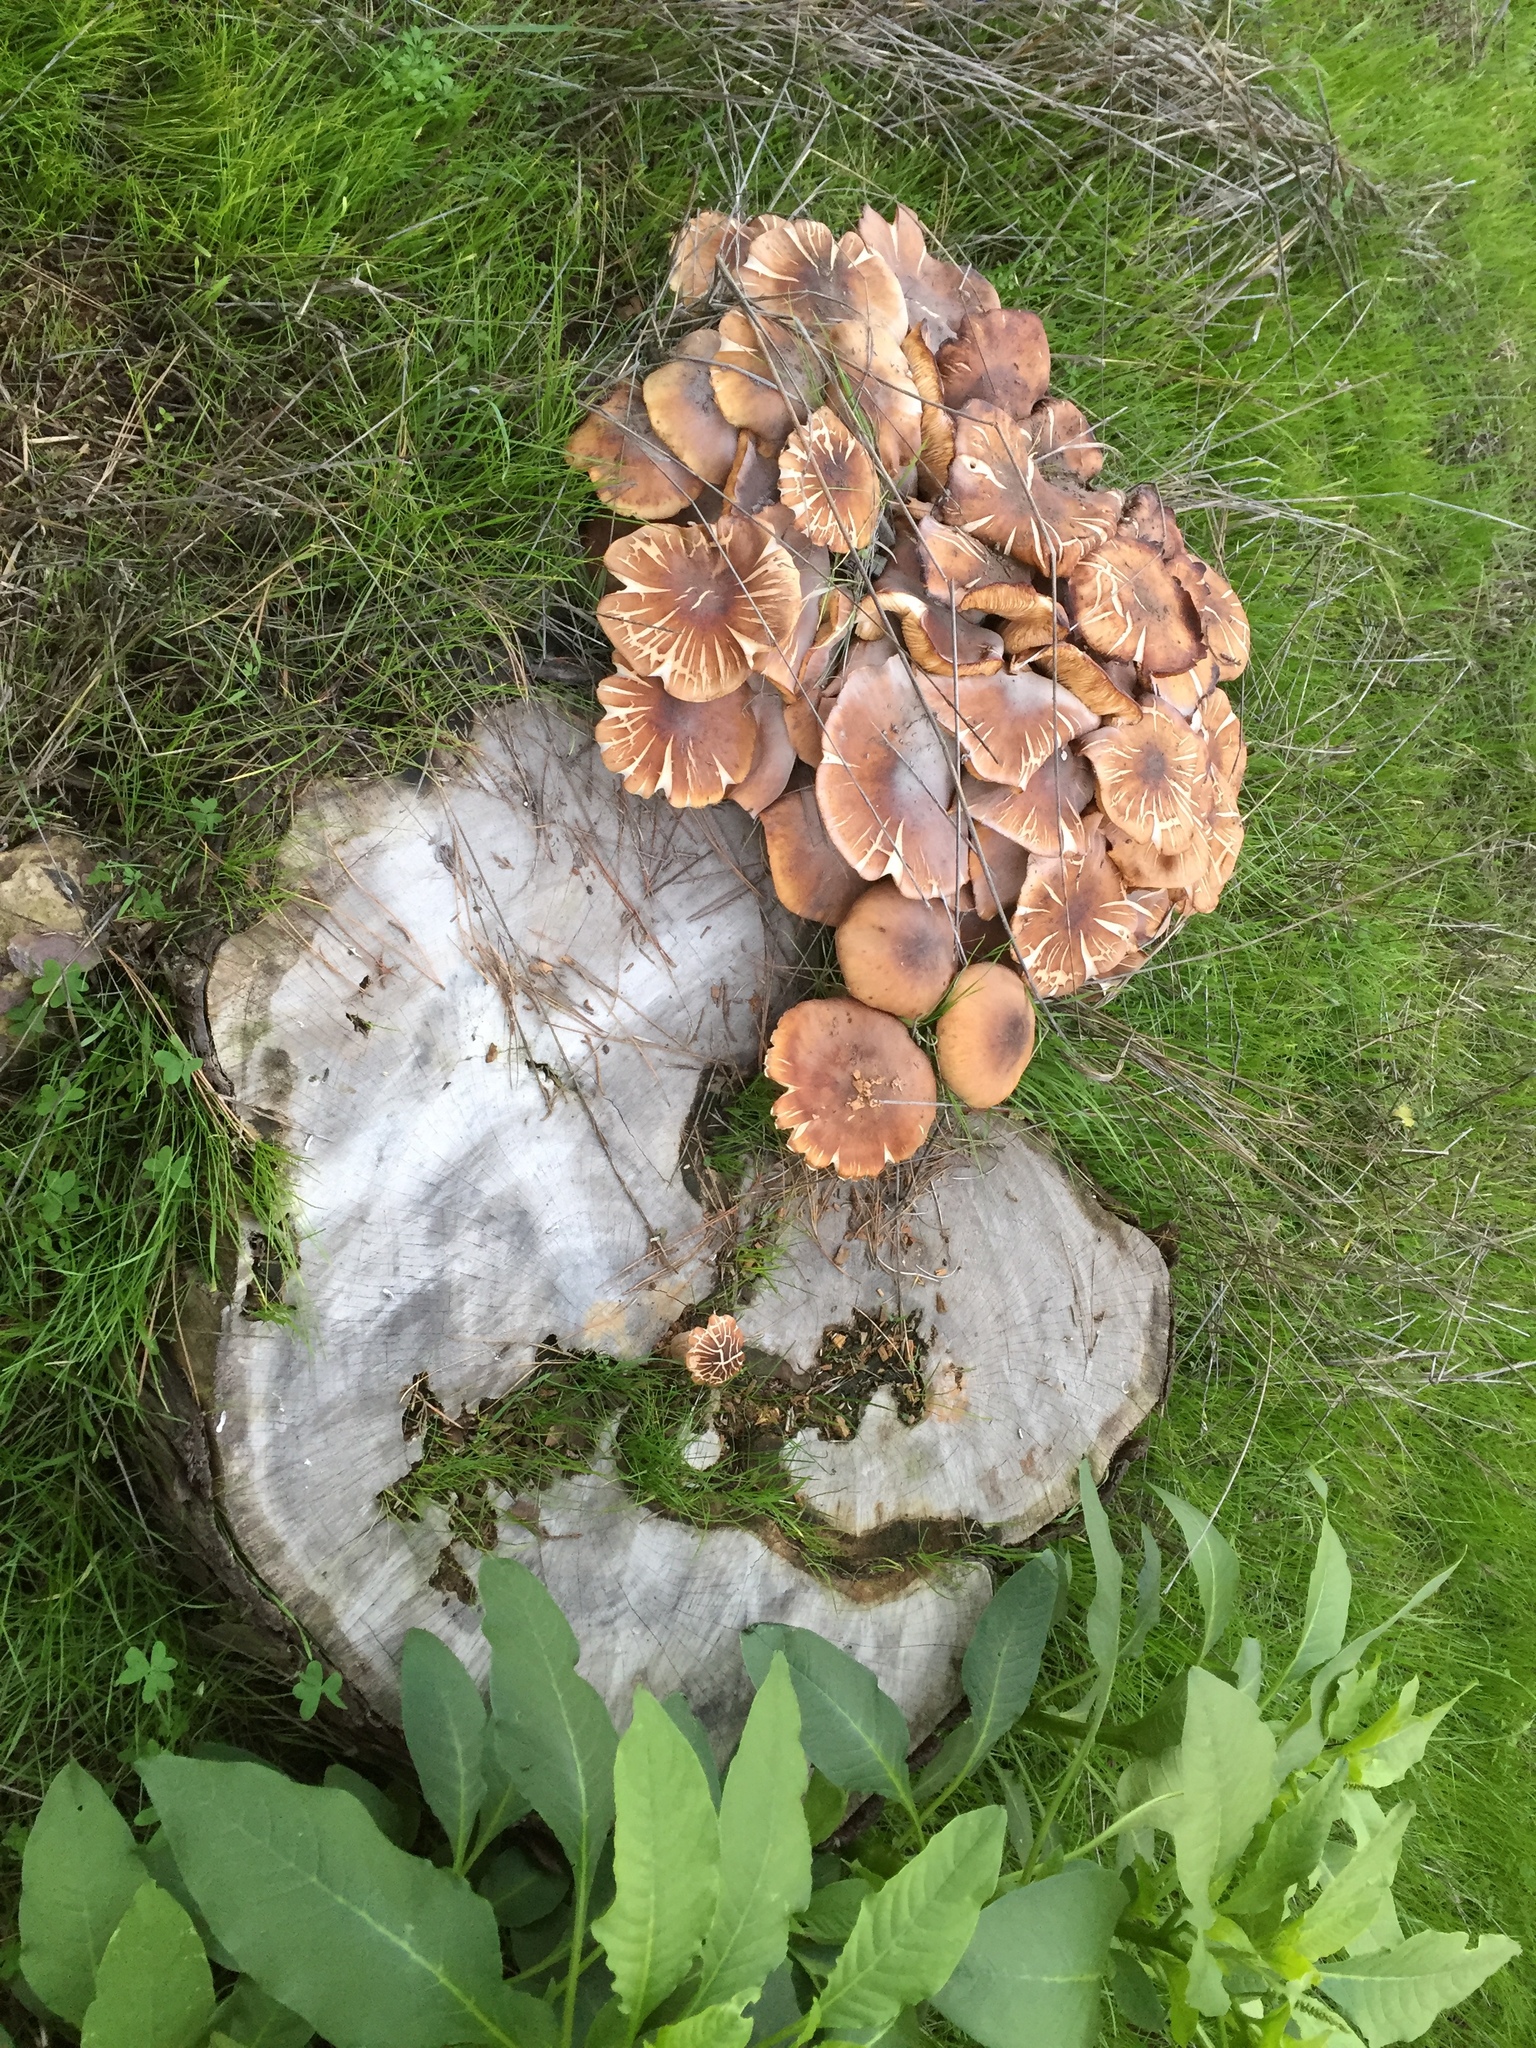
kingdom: Fungi
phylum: Basidiomycota
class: Agaricomycetes
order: Agaricales
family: Physalacriaceae
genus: Armillaria
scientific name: Armillaria mellea
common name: Honey fungus
